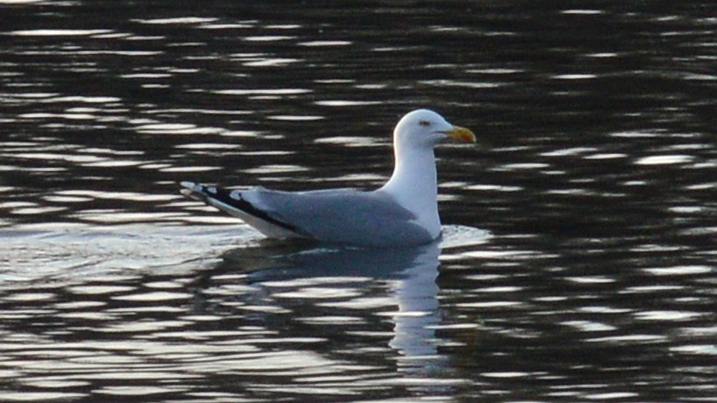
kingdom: Animalia
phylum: Chordata
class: Aves
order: Charadriiformes
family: Laridae
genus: Larus
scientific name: Larus argentatus
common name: Herring gull
